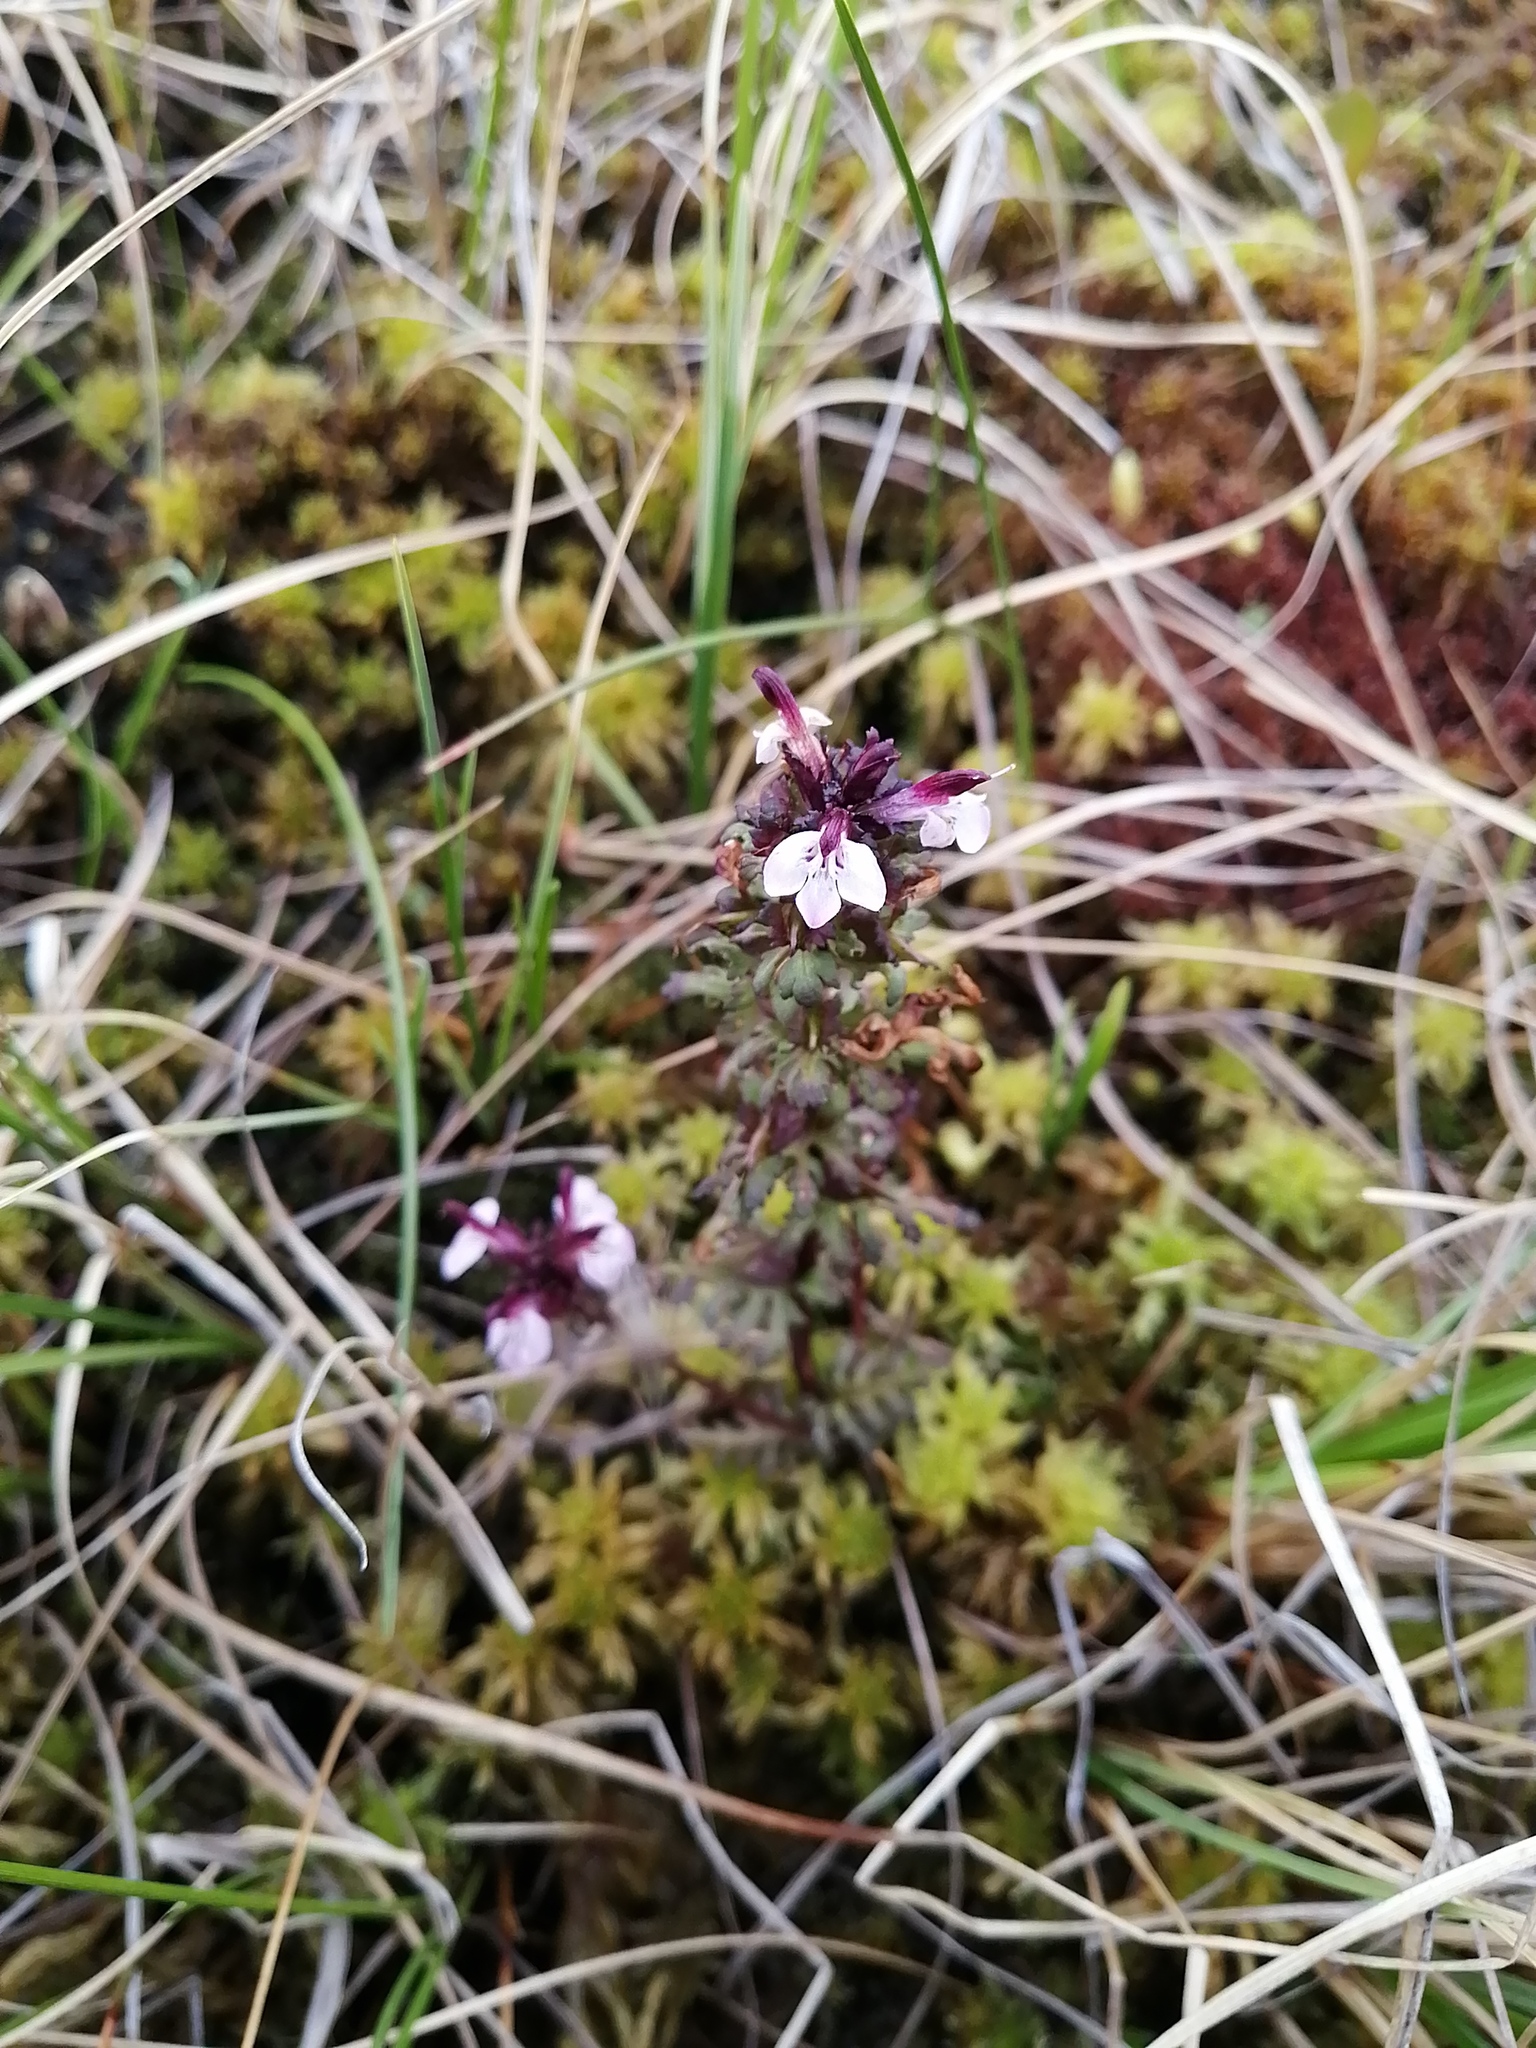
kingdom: Plantae
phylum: Tracheophyta
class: Magnoliopsida
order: Lamiales
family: Orobanchaceae
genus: Pedicularis
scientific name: Pedicularis pennellii
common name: Pennell's lousewort
